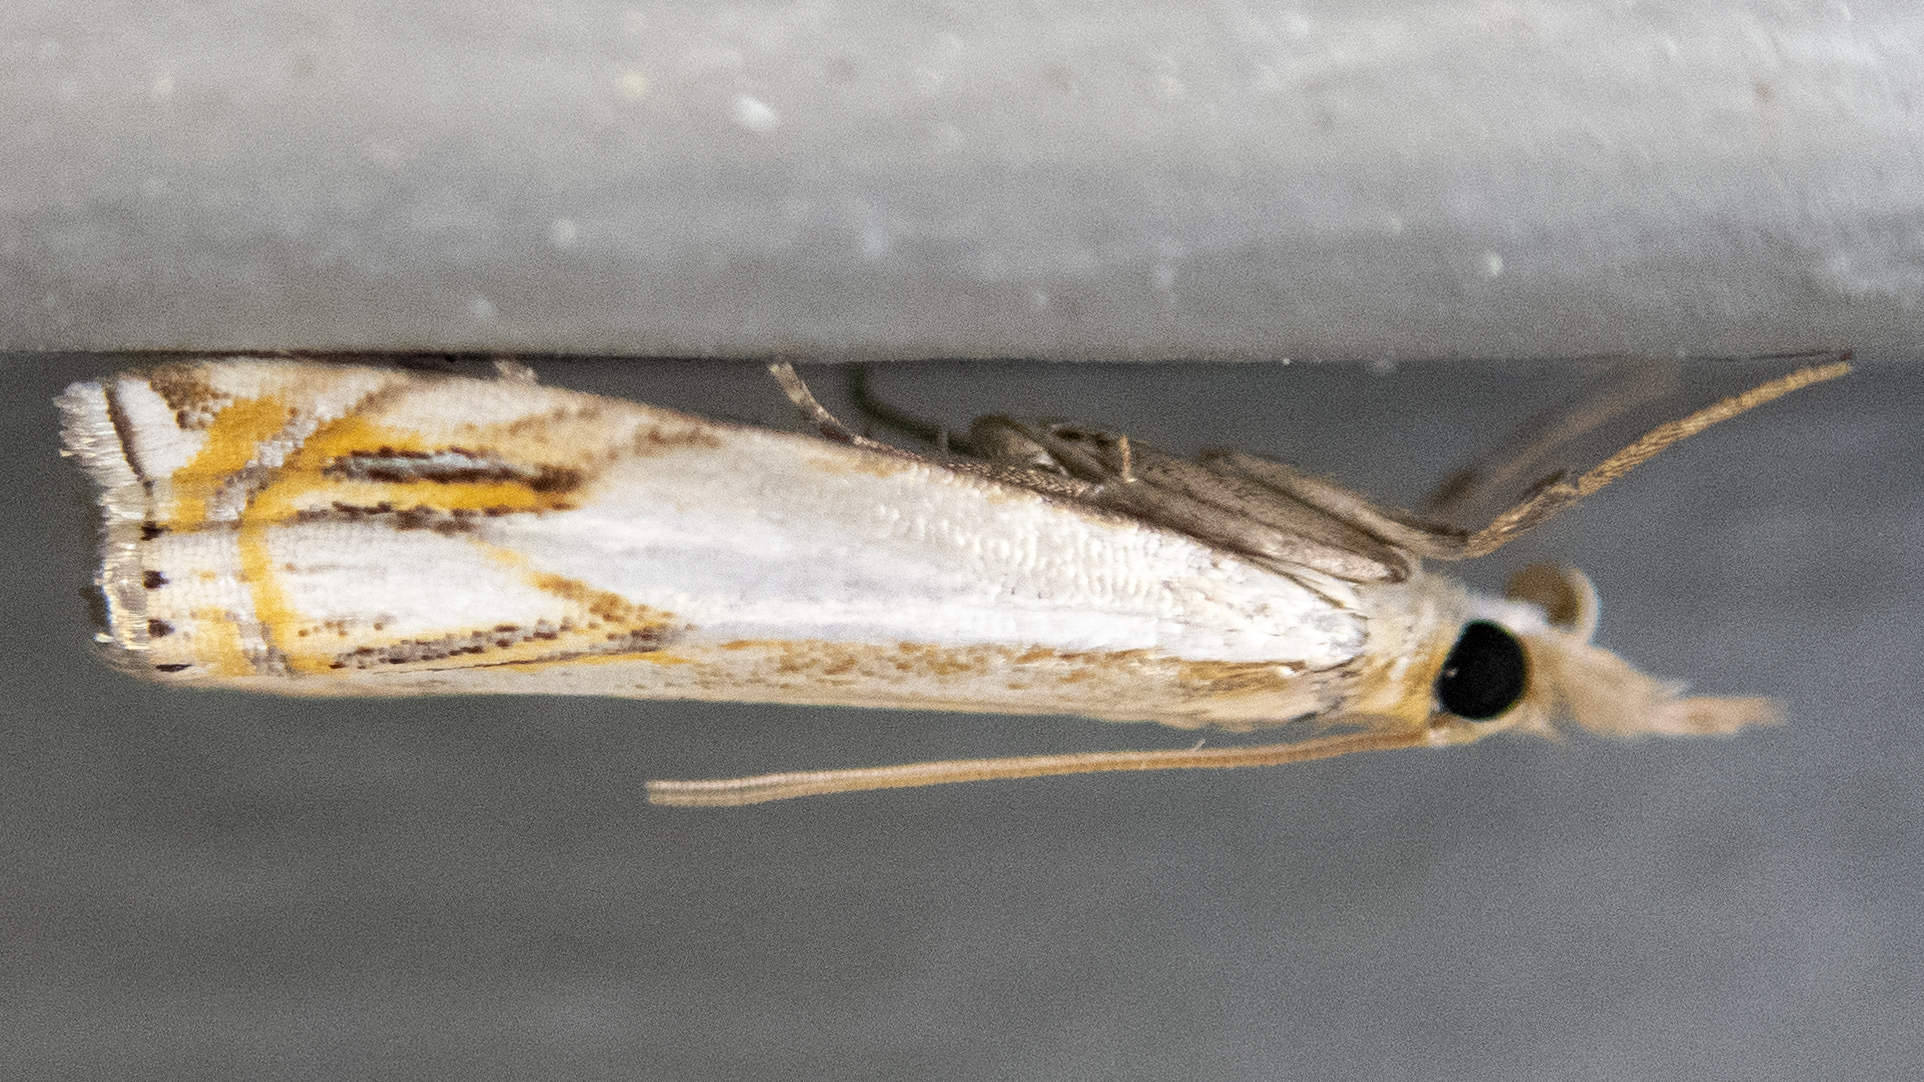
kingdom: Animalia
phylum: Arthropoda
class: Insecta
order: Lepidoptera
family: Crambidae
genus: Crambus
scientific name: Crambus agitatellus
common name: Double-banded grass-veneer
